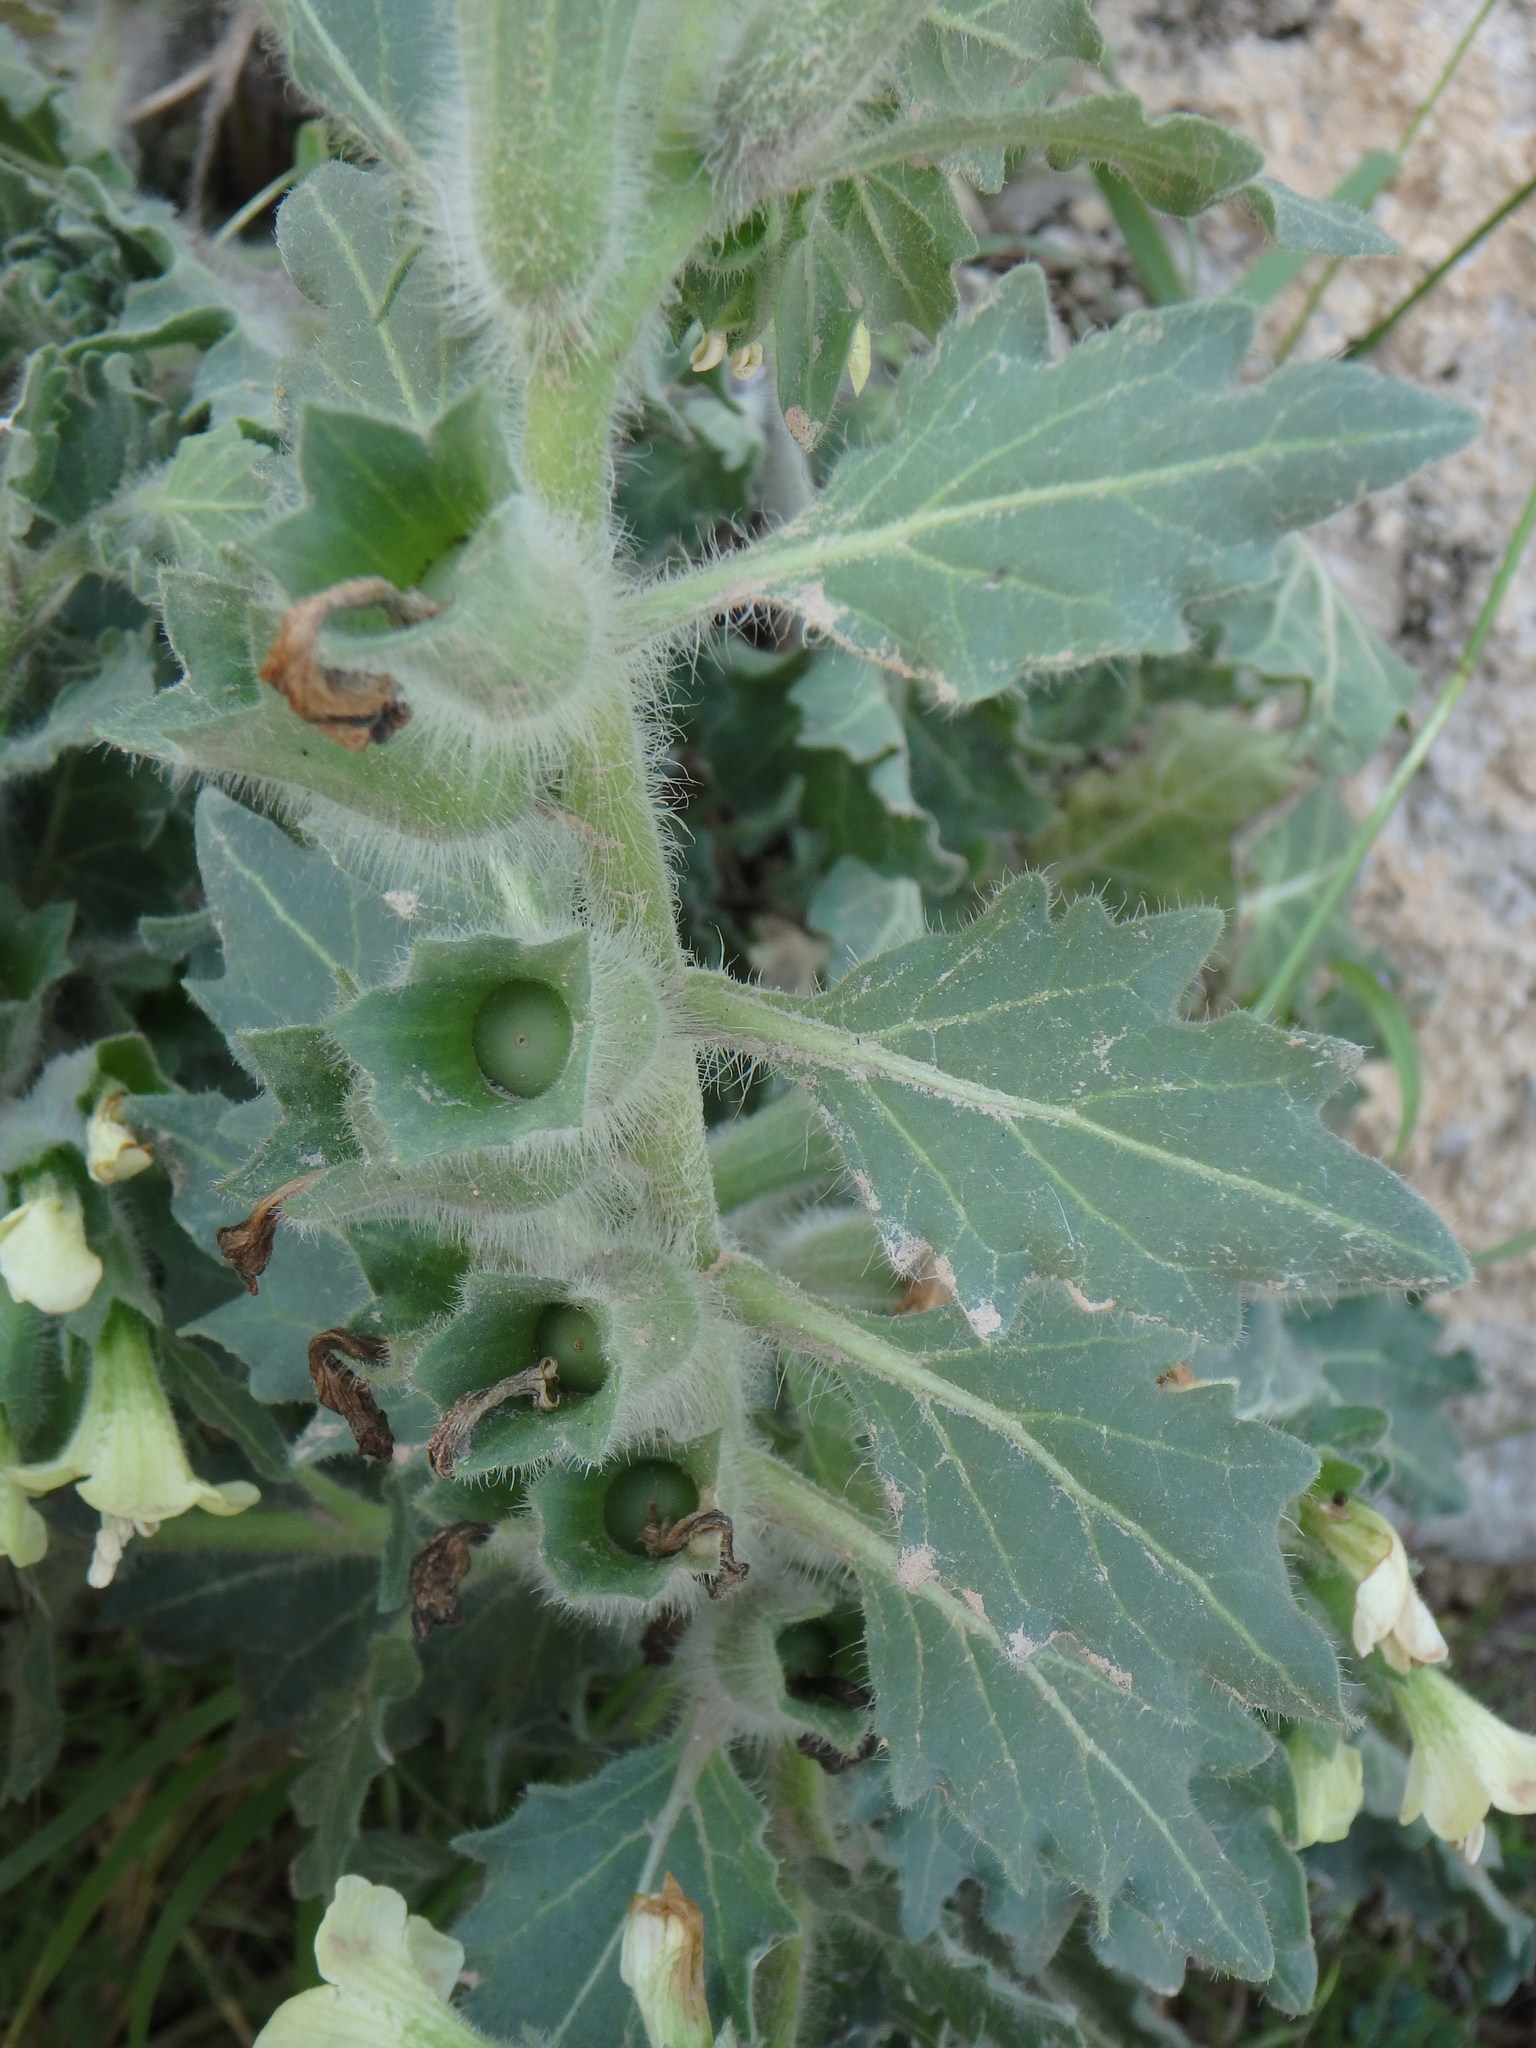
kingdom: Plantae
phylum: Tracheophyta
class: Magnoliopsida
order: Solanales
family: Solanaceae
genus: Hyoscyamus
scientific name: Hyoscyamus albus
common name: White henbane
